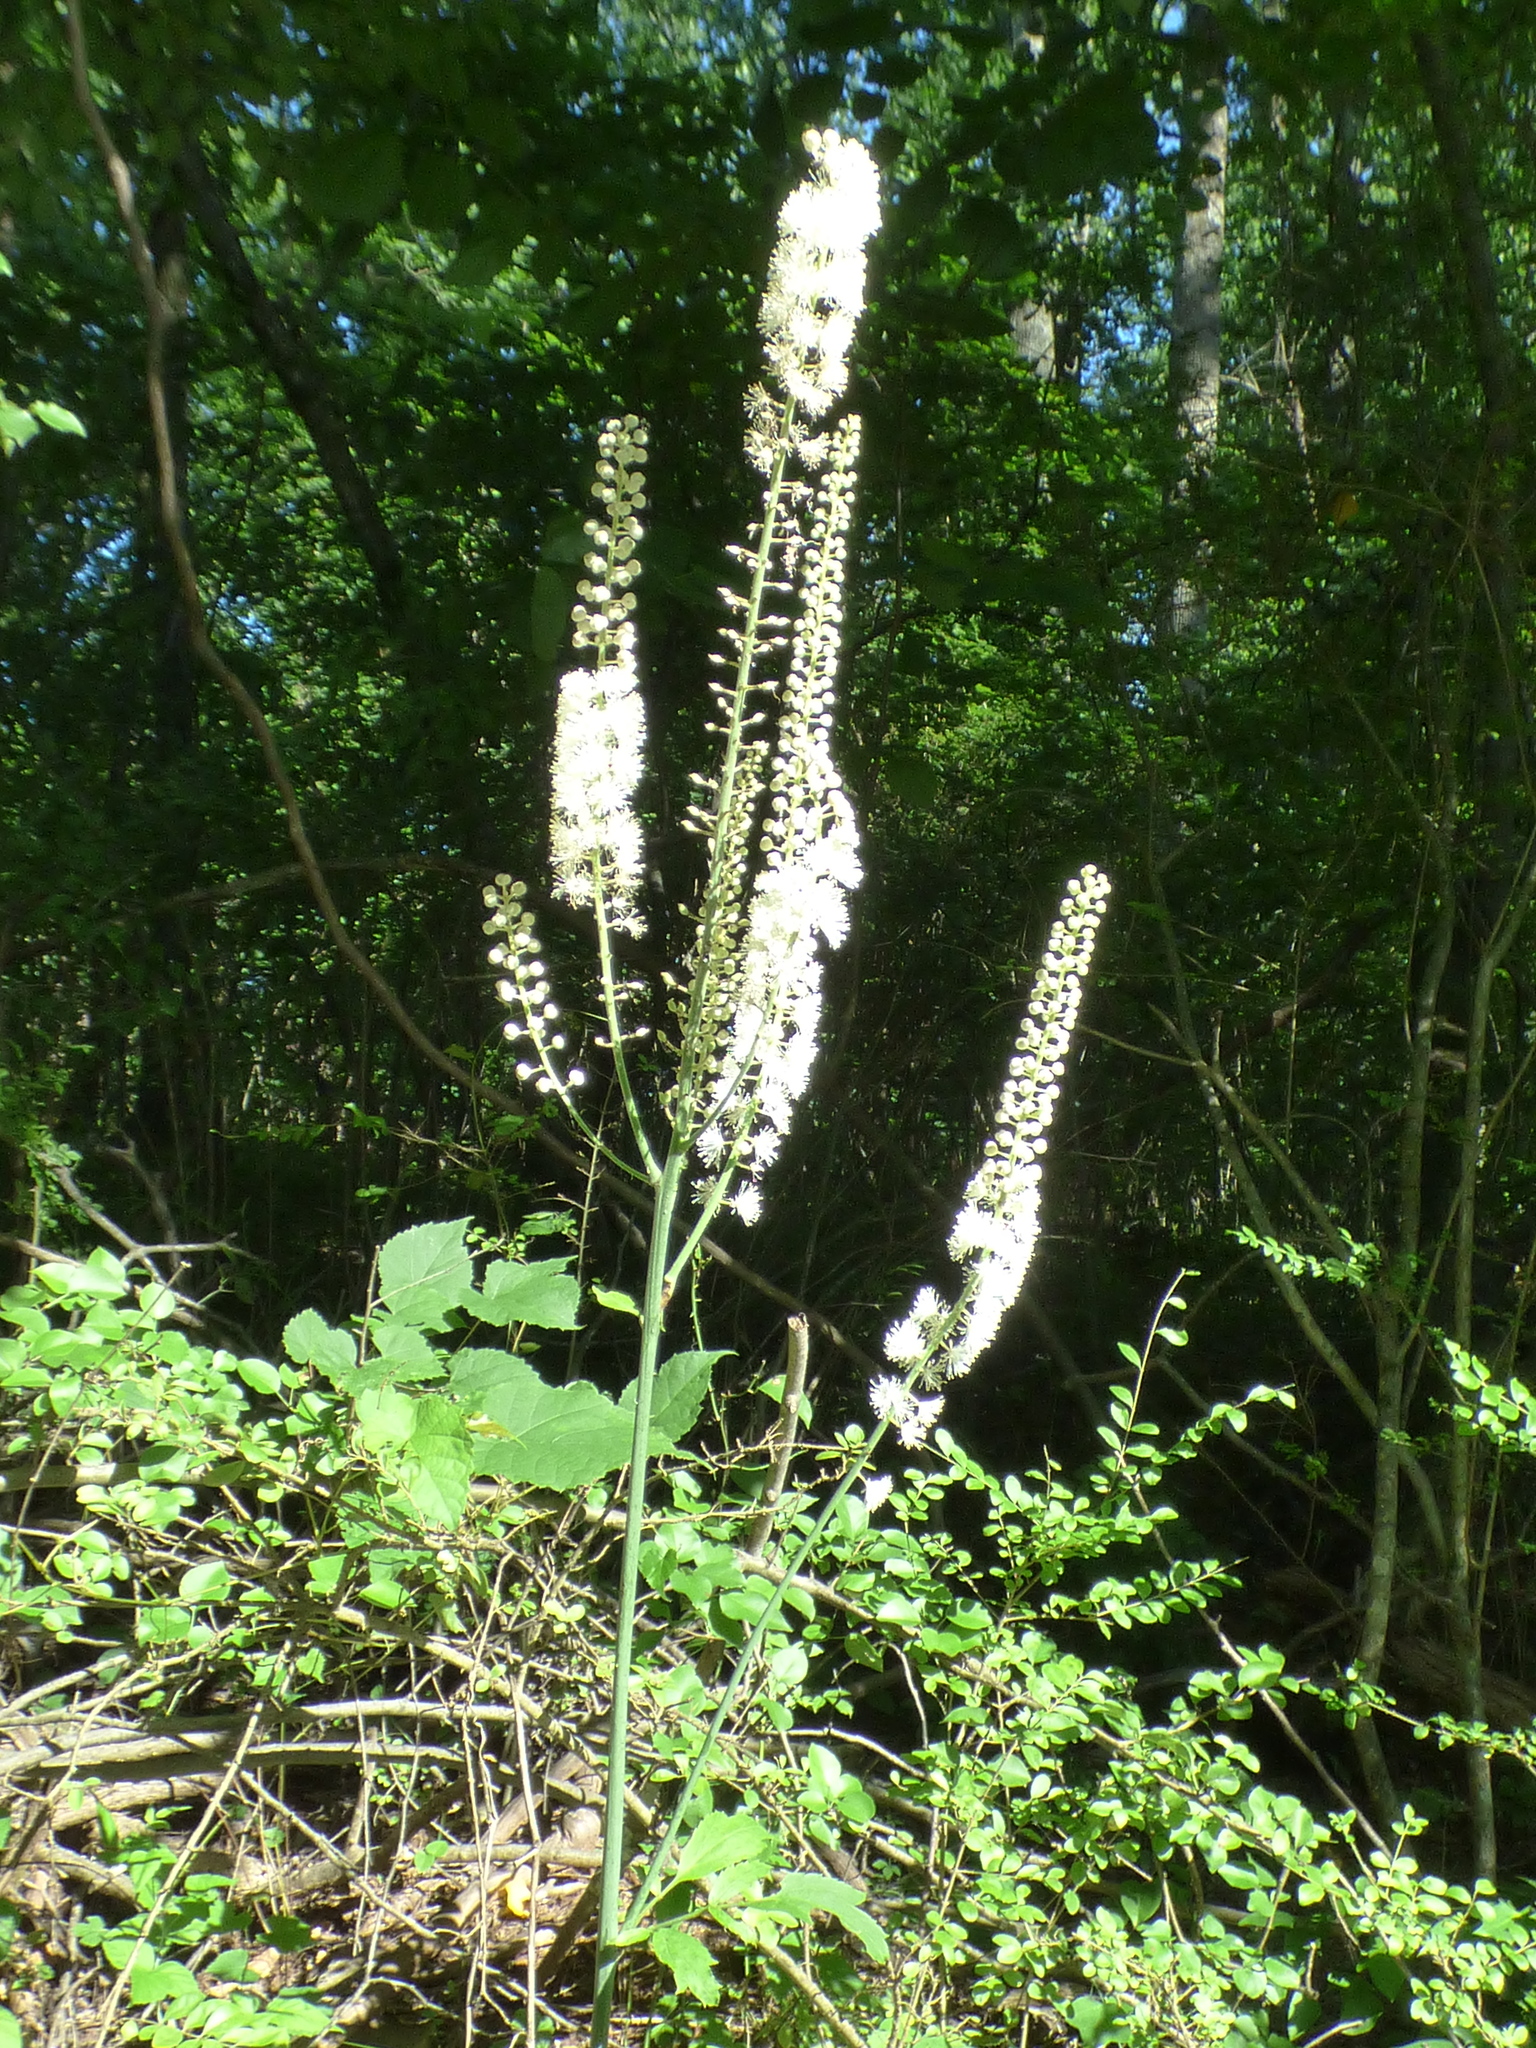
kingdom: Plantae
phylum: Tracheophyta
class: Magnoliopsida
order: Ranunculales
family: Ranunculaceae
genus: Actaea
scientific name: Actaea racemosa
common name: Black cohosh
